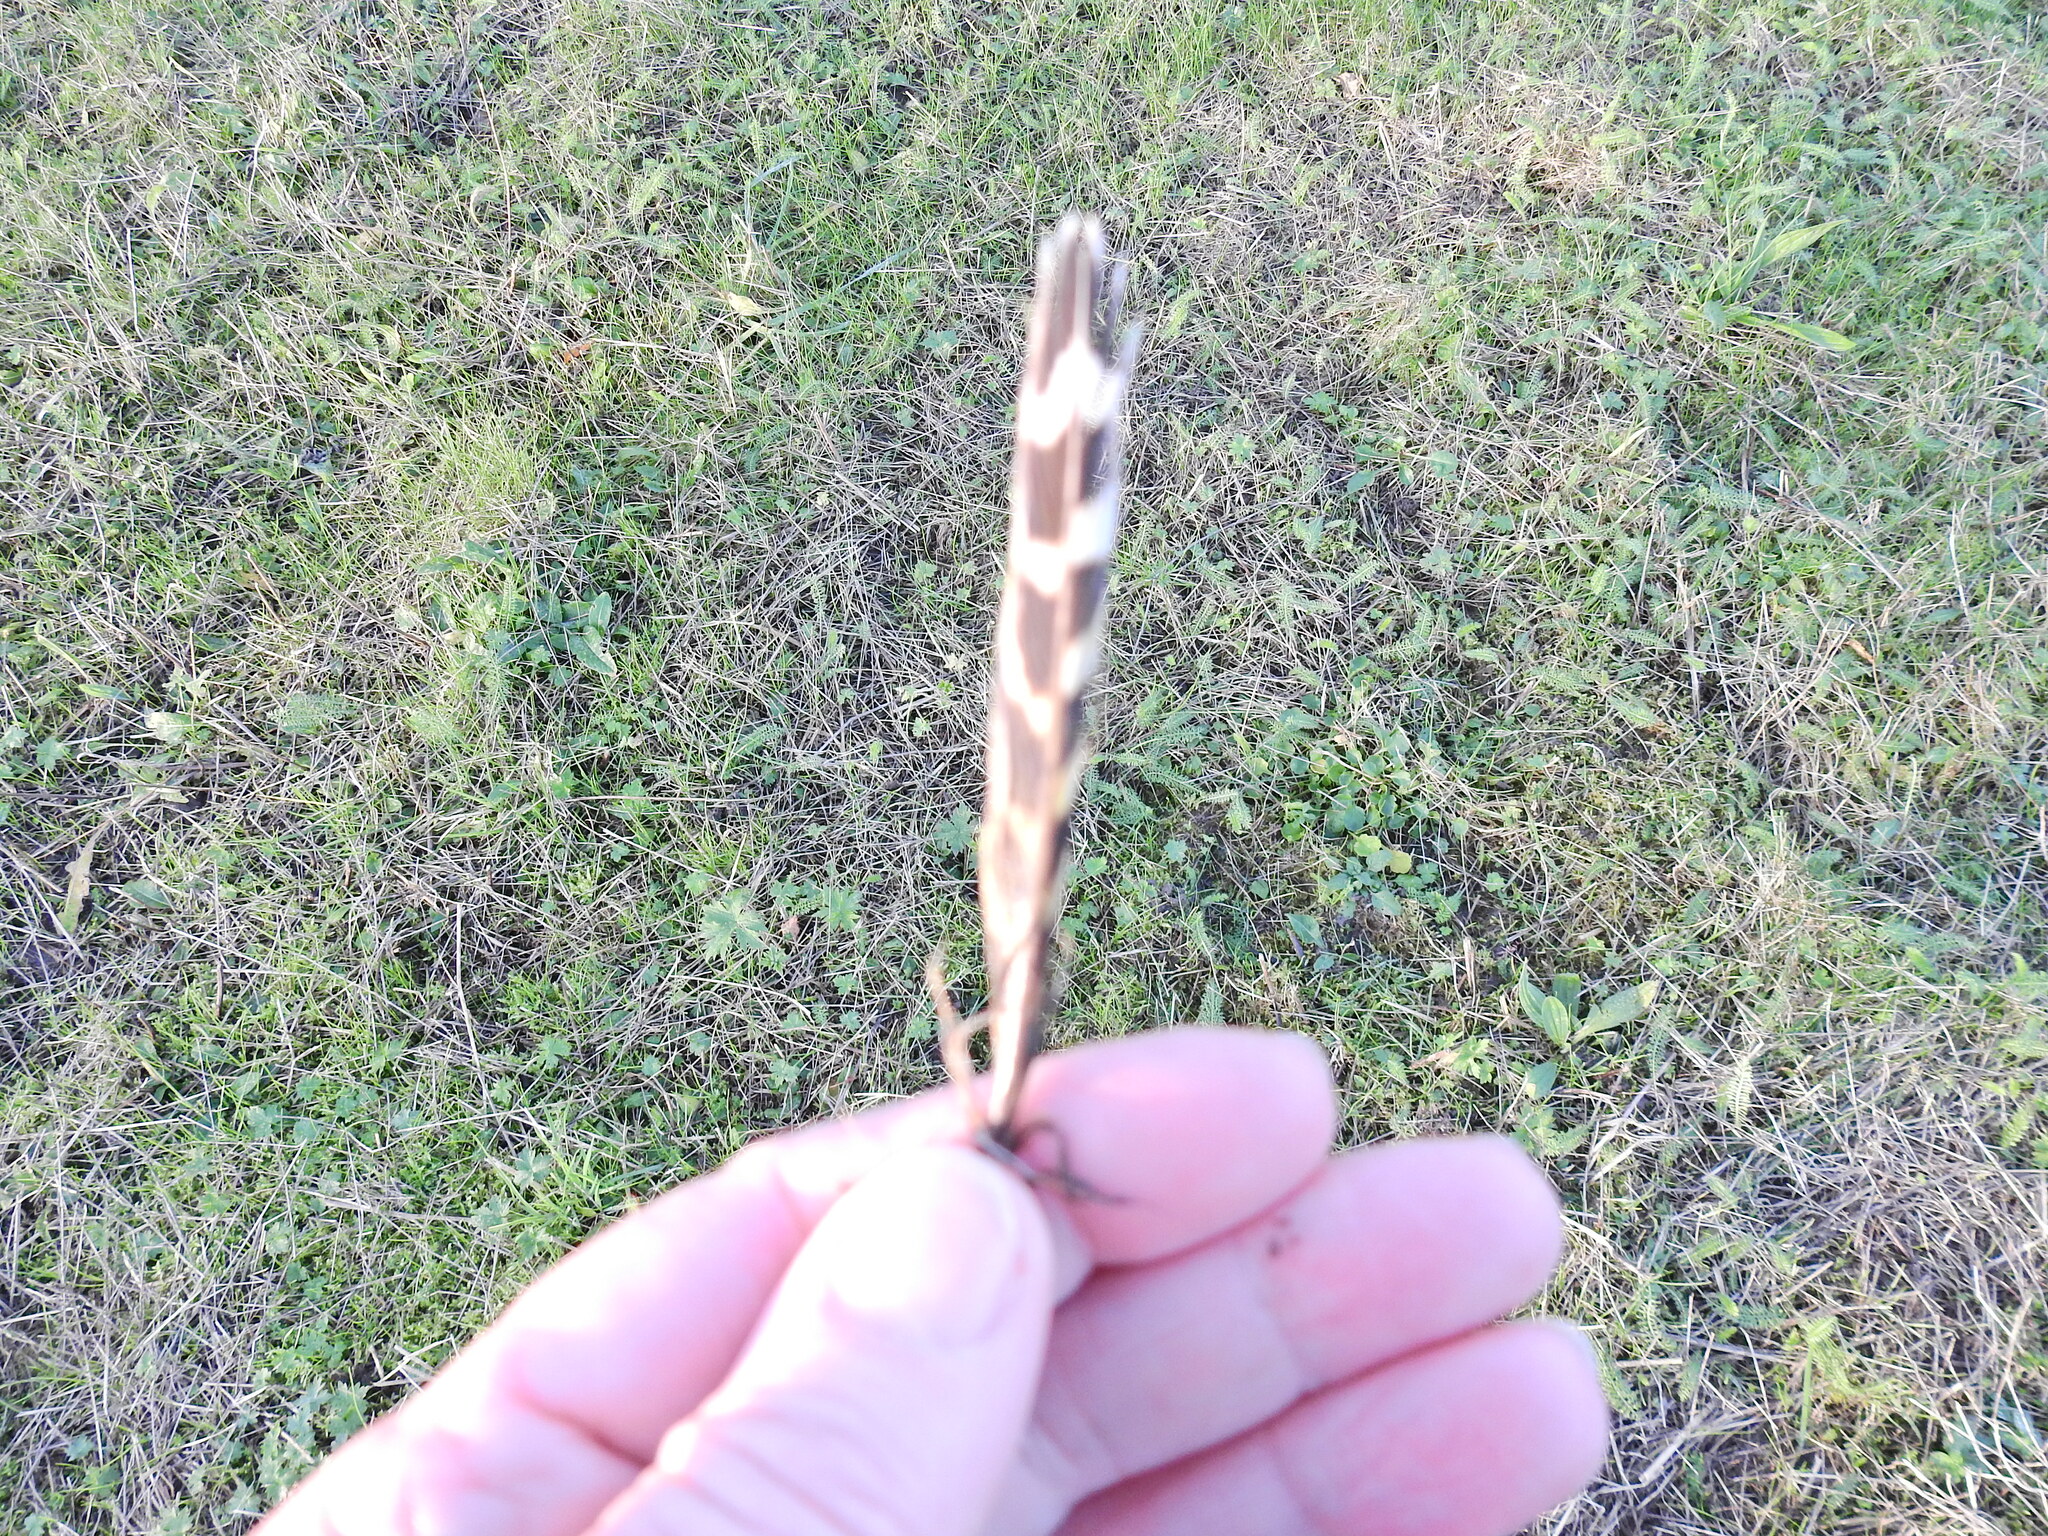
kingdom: Animalia
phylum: Chordata
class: Aves
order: Galliformes
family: Phasianidae
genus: Phasianus
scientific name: Phasianus colchicus
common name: Common pheasant
